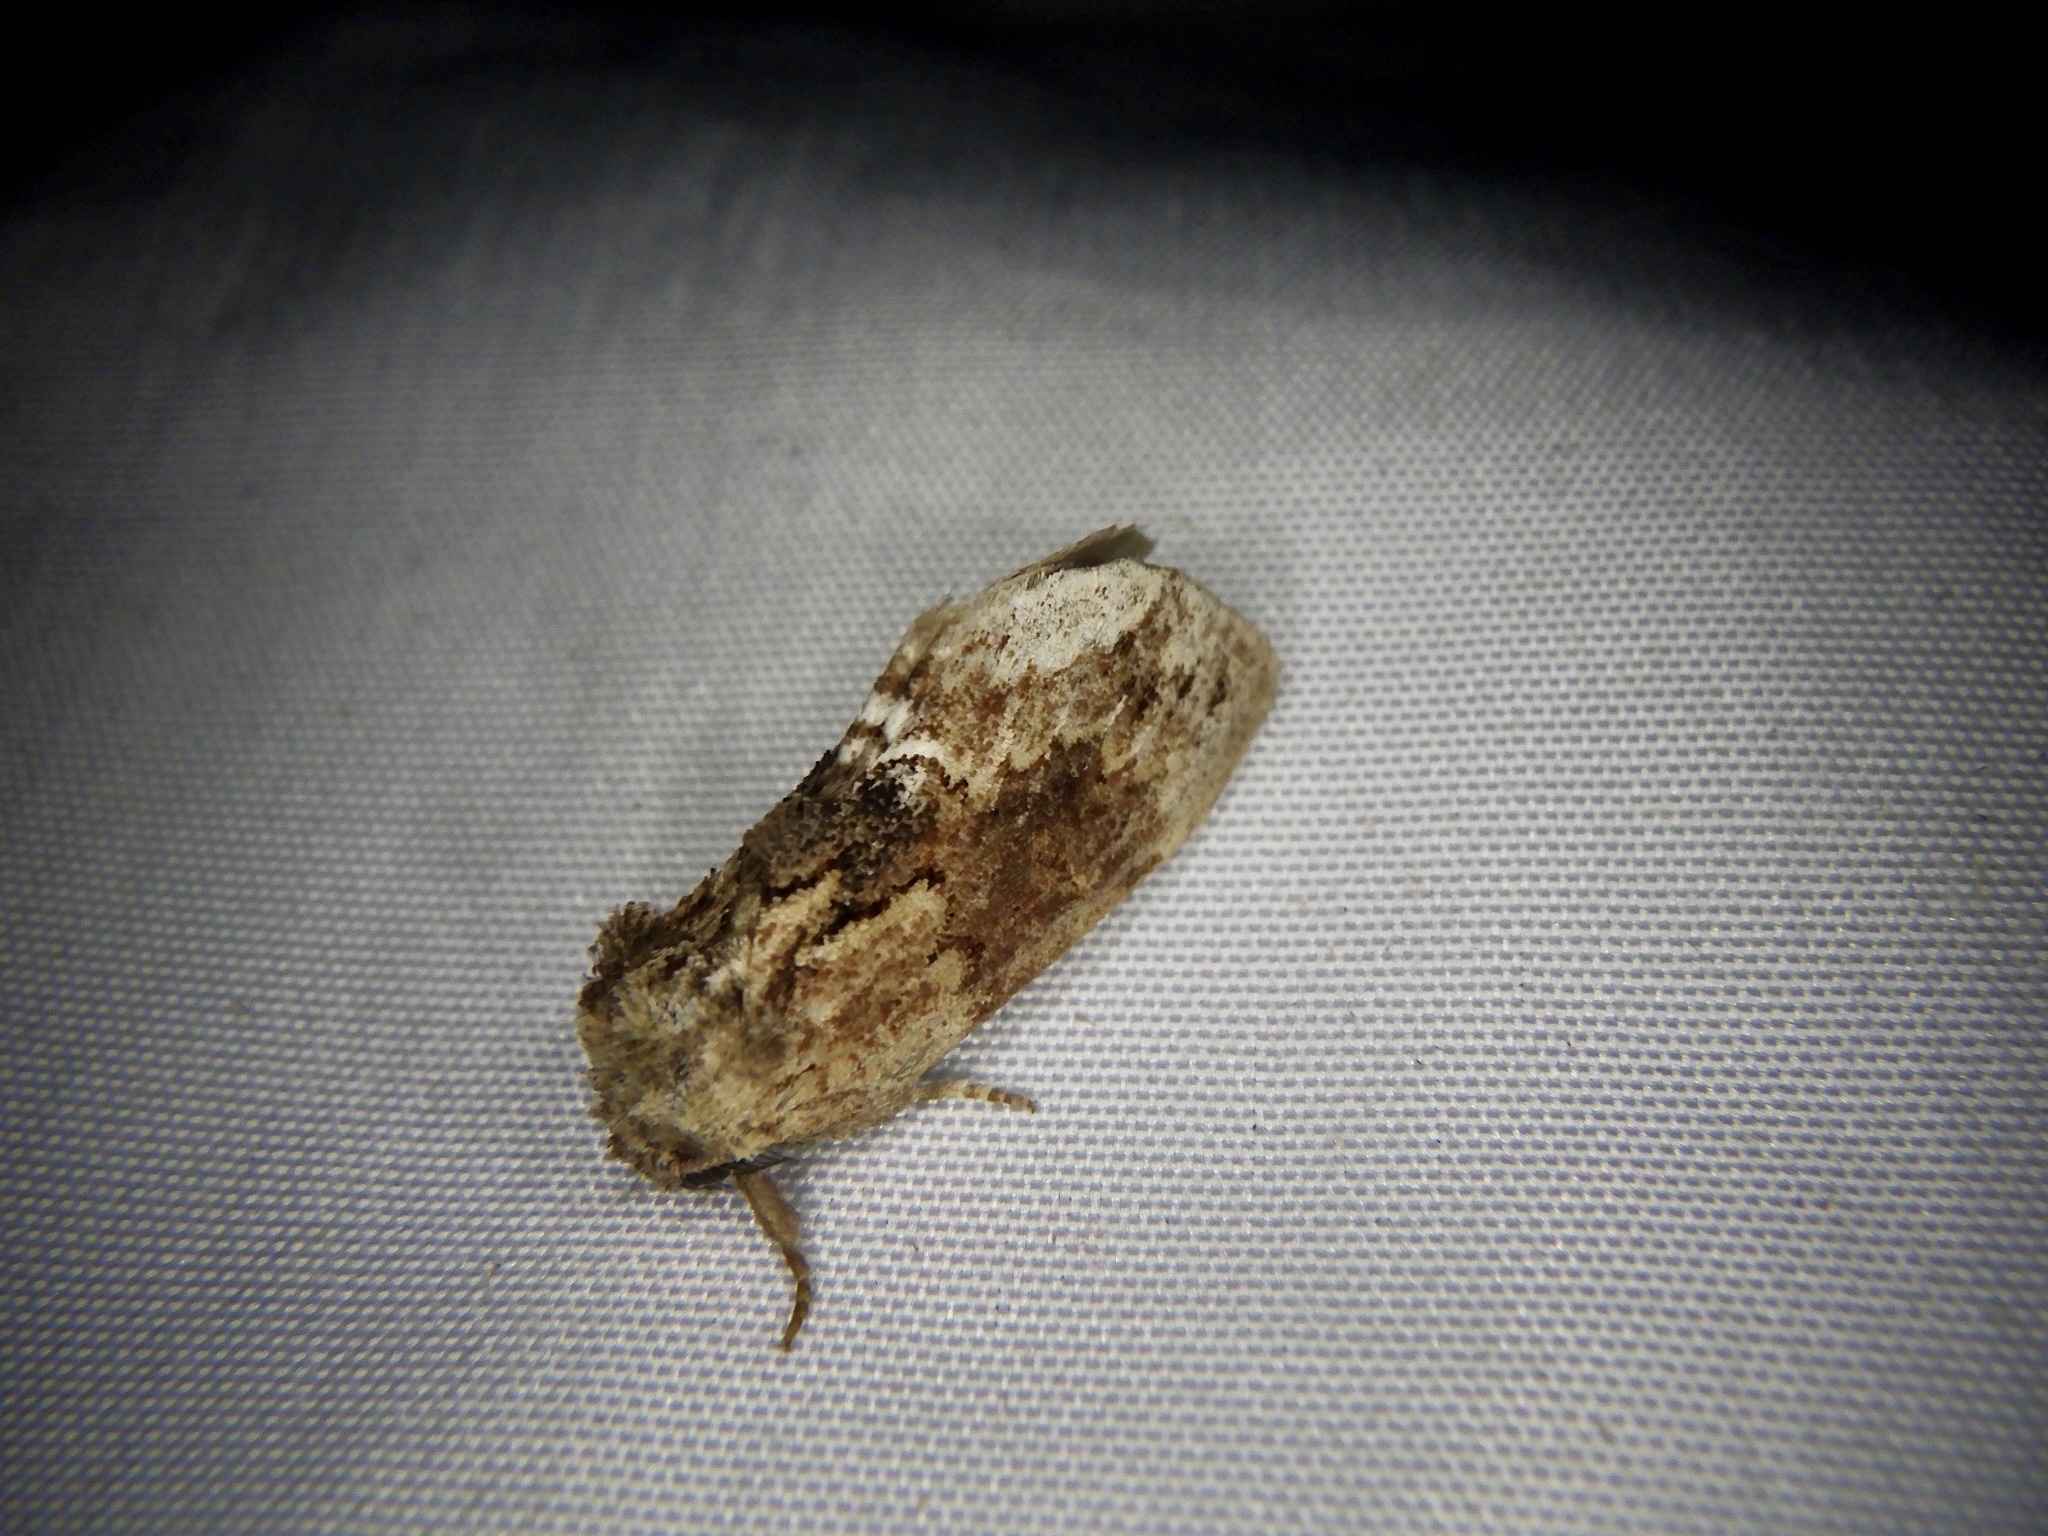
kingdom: Animalia
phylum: Arthropoda
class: Insecta
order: Lepidoptera
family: Notodontidae
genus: Lophontosia
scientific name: Lophontosia
